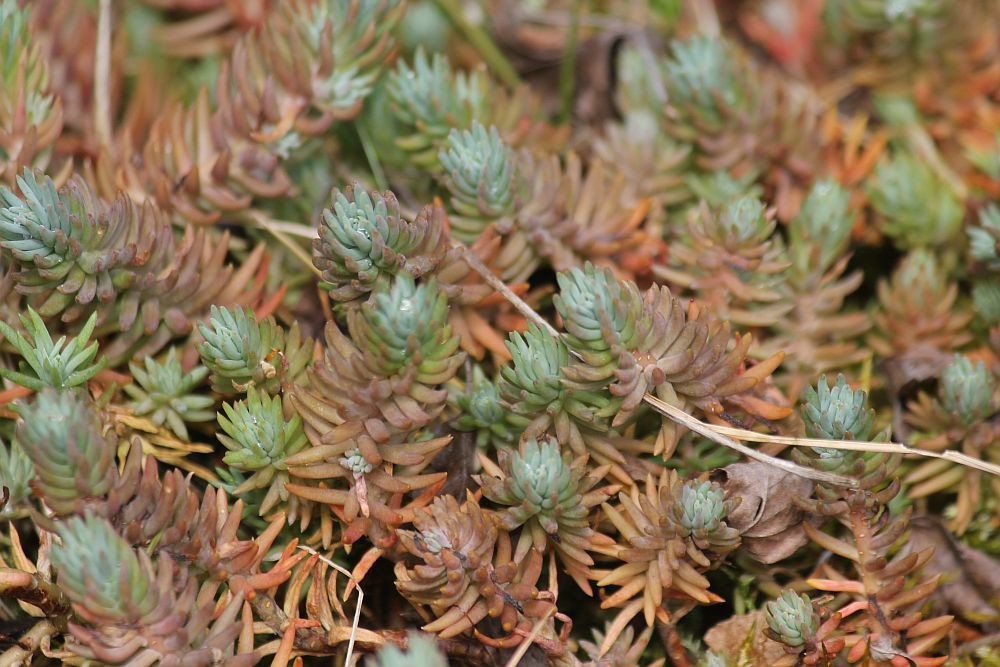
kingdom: Plantae
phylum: Tracheophyta
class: Magnoliopsida
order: Saxifragales
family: Crassulaceae
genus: Petrosedum
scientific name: Petrosedum rupestre
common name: Jenny's stonecrop
